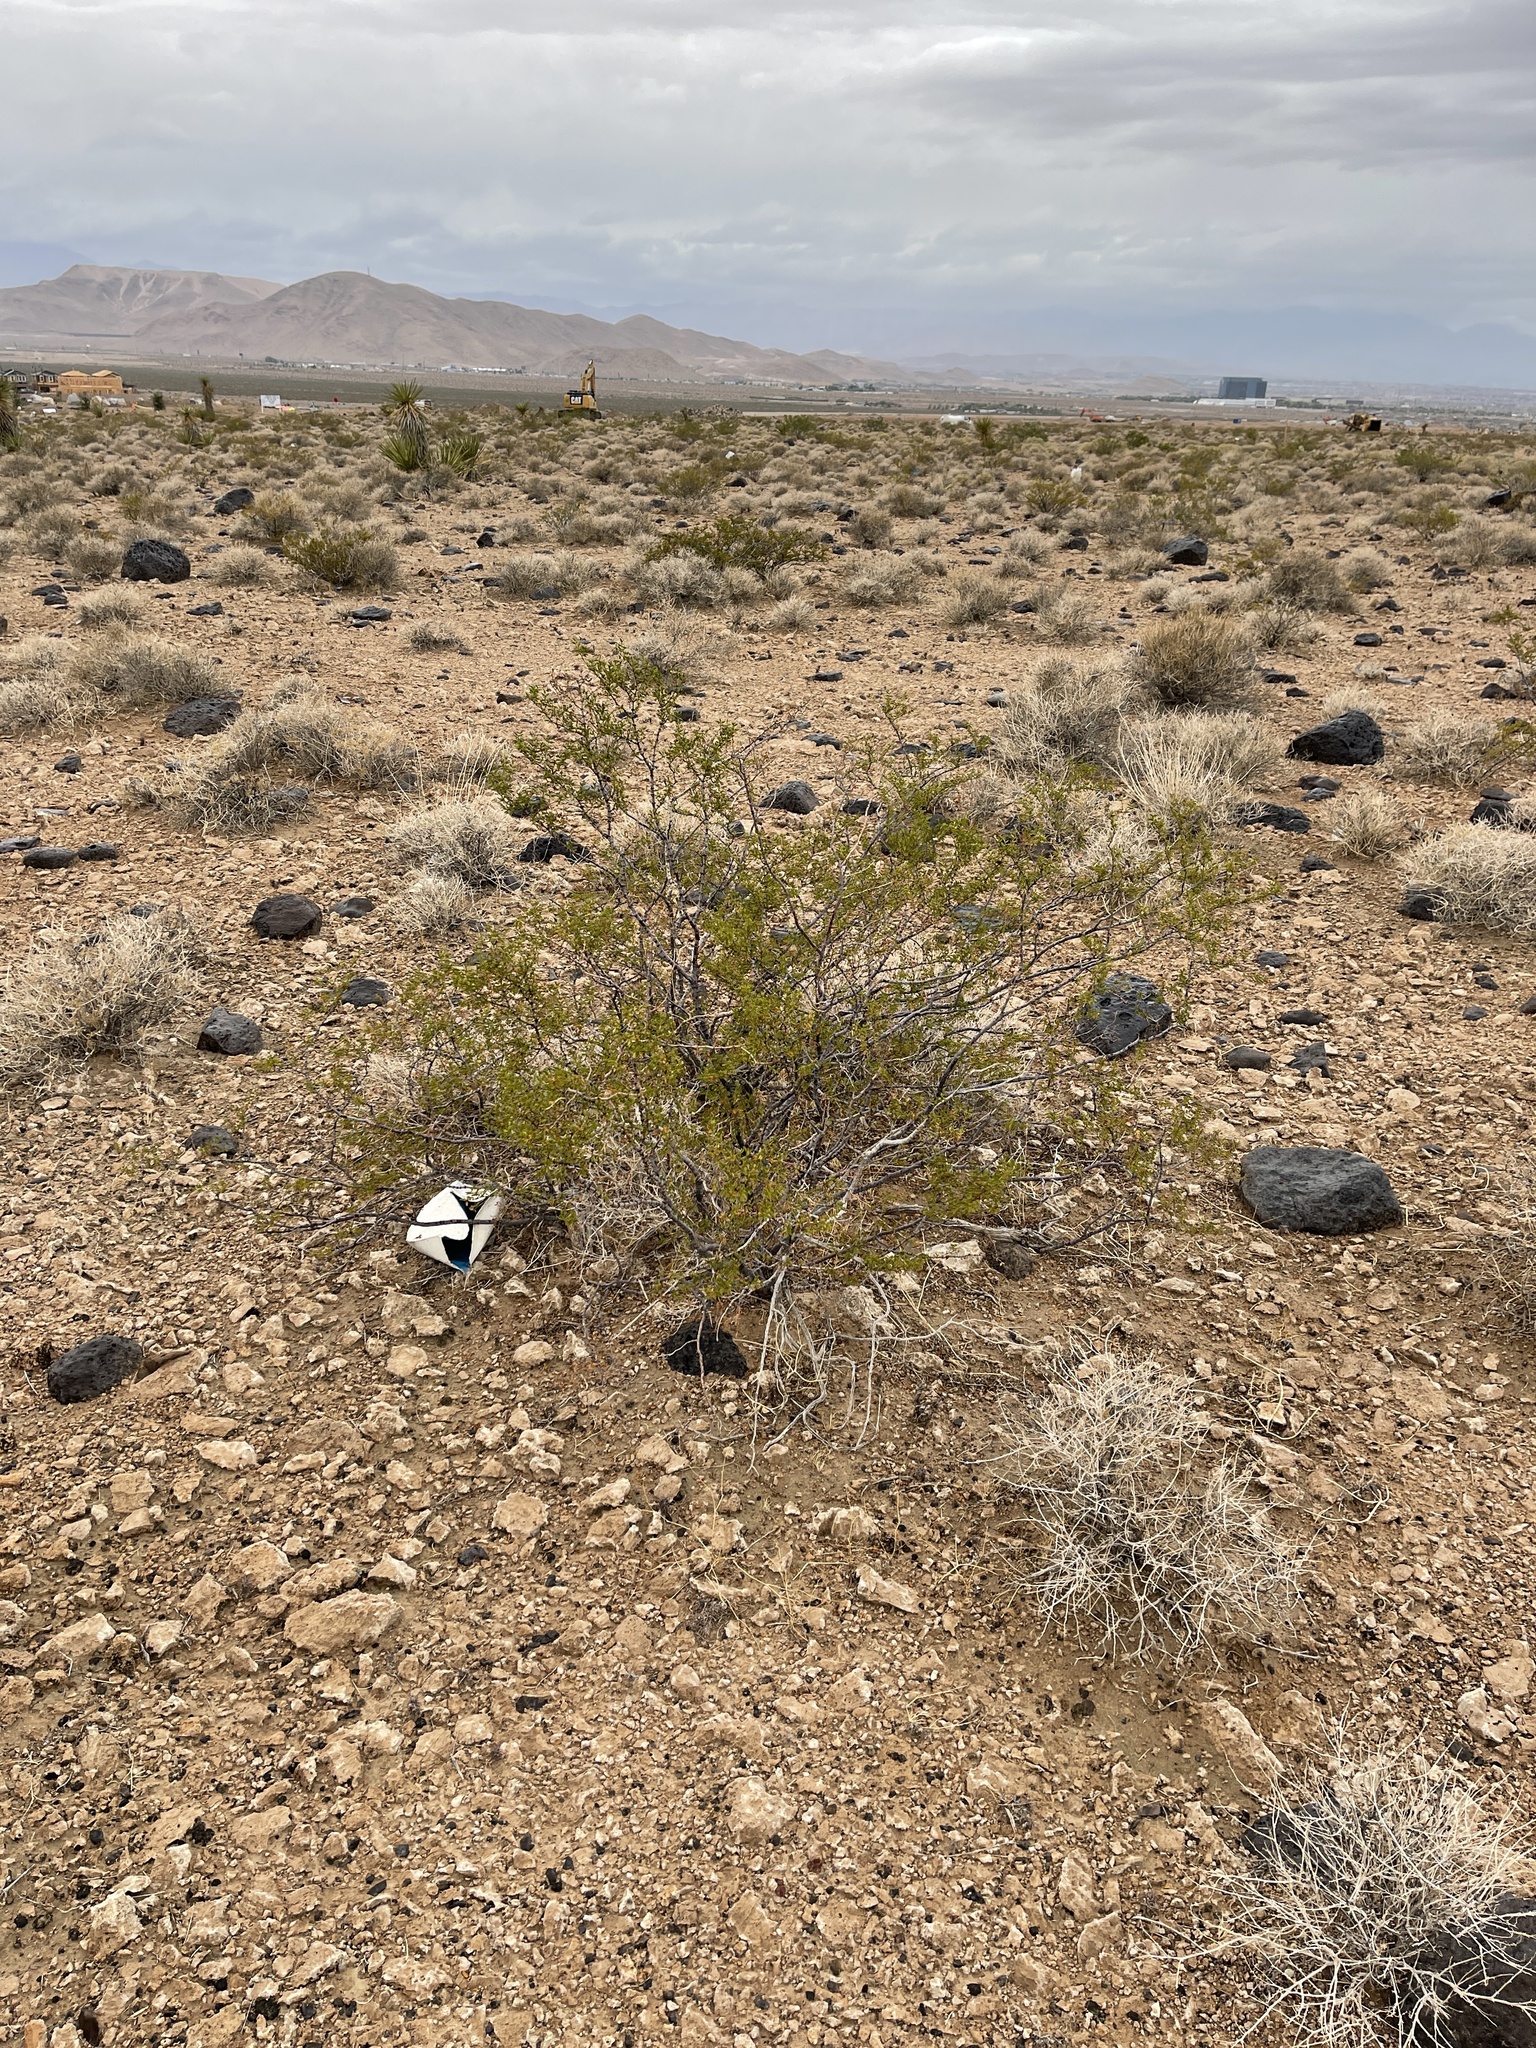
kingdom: Plantae
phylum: Tracheophyta
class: Magnoliopsida
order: Zygophyllales
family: Zygophyllaceae
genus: Larrea
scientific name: Larrea tridentata
